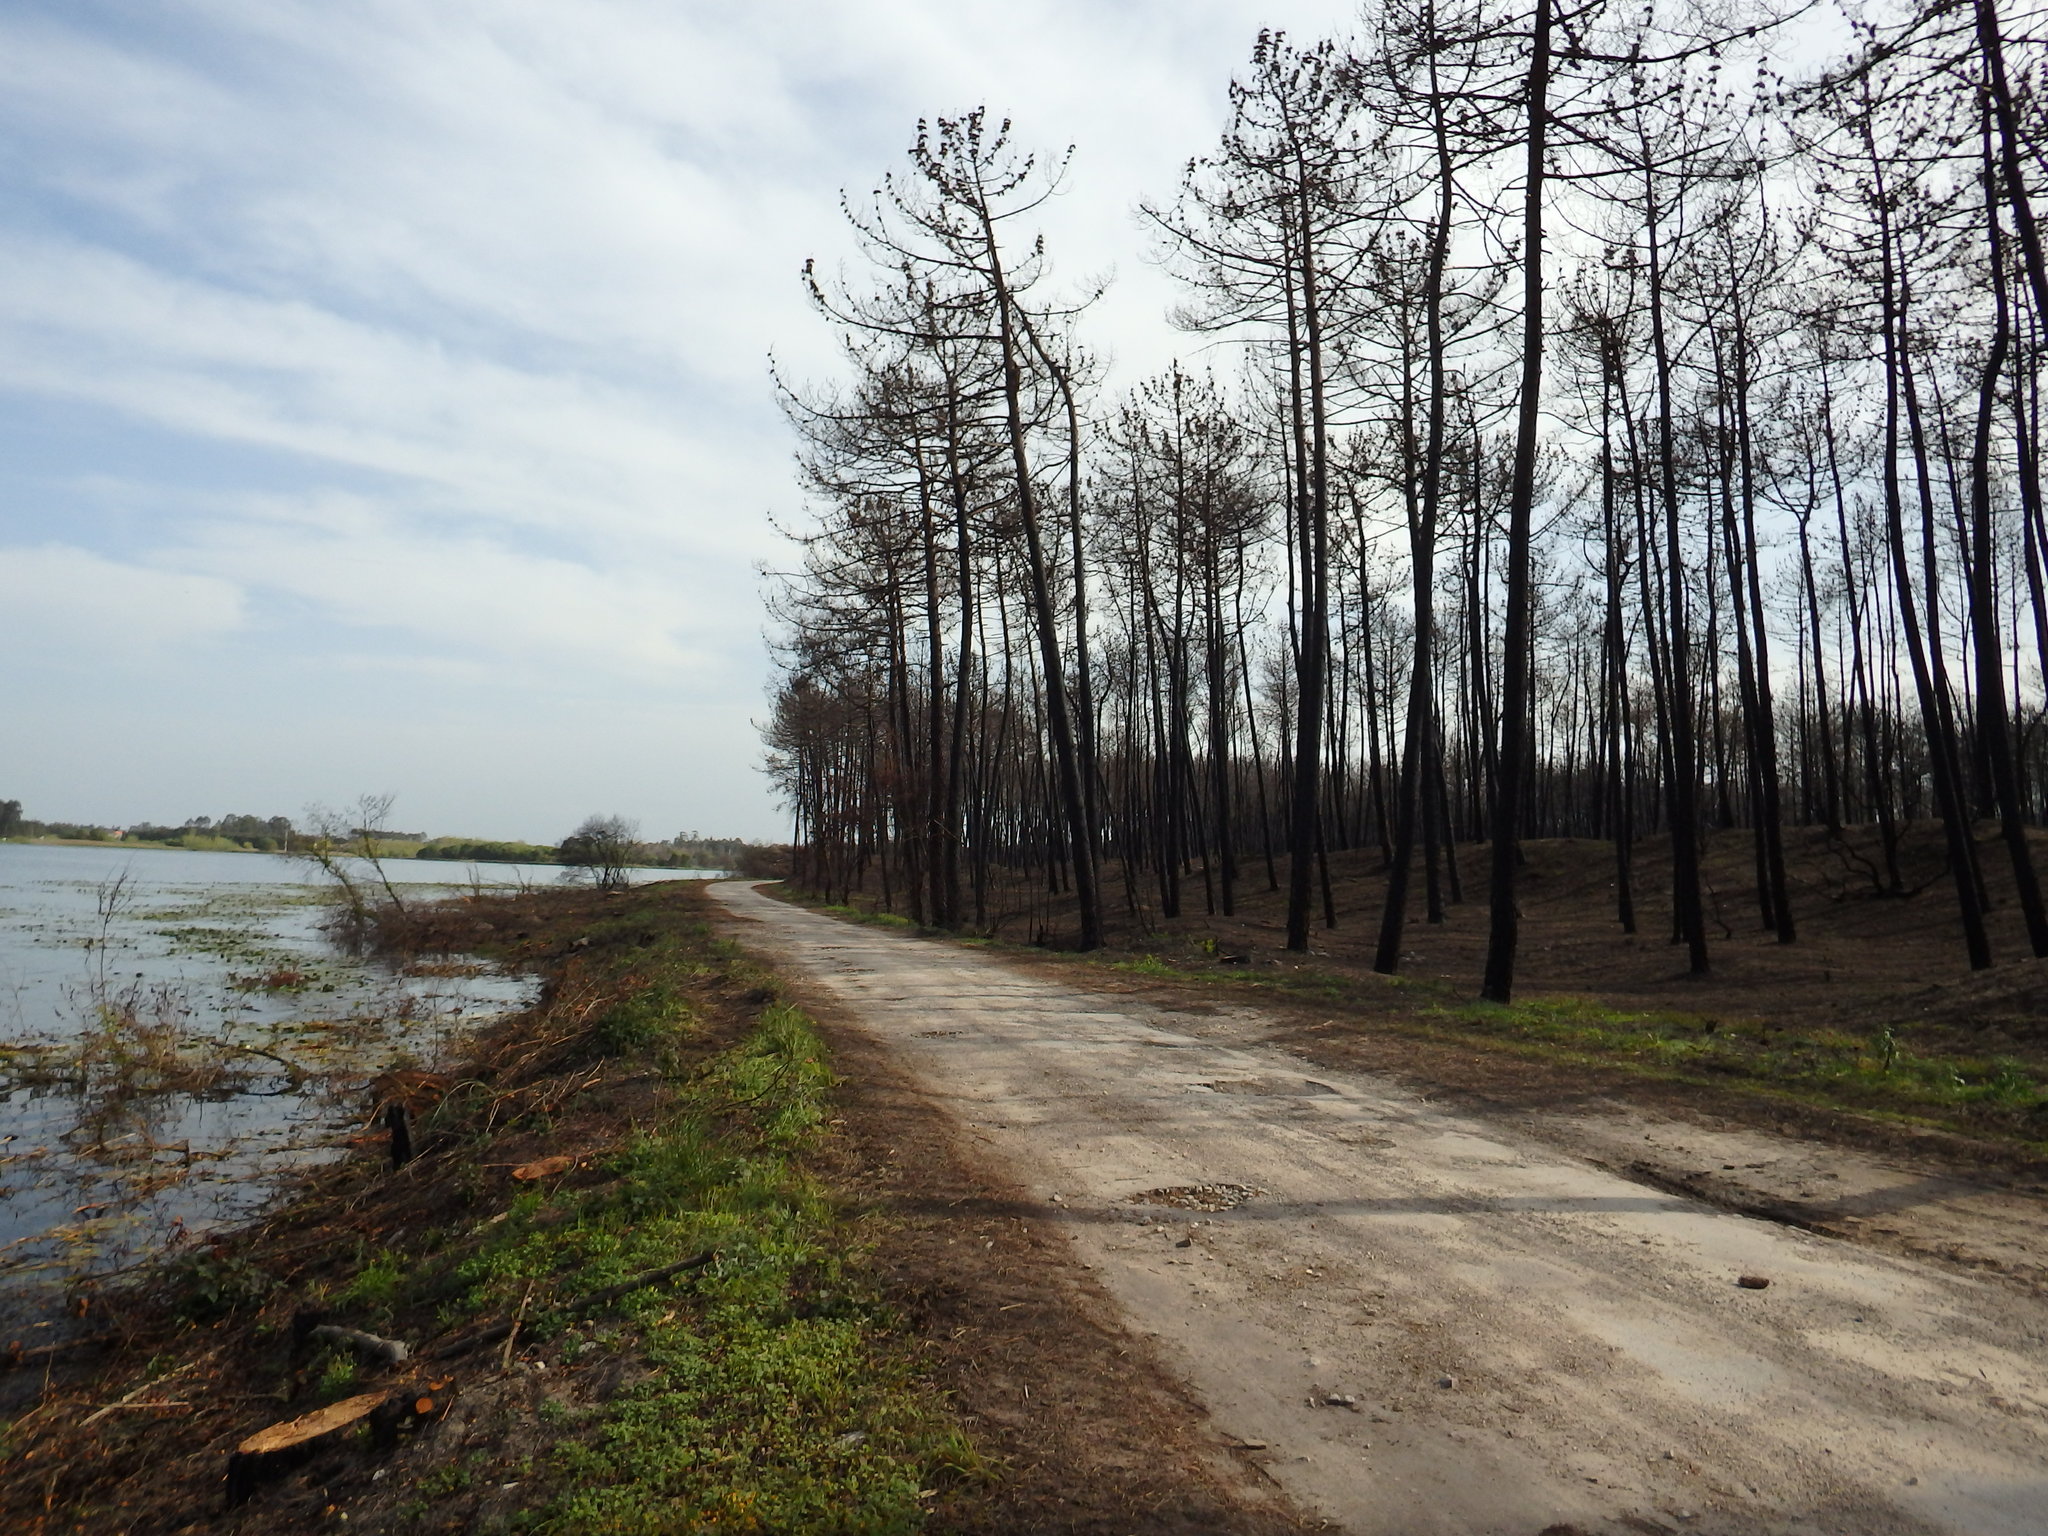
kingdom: Plantae
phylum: Tracheophyta
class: Pinopsida
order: Pinales
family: Pinaceae
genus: Pinus
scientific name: Pinus pinaster
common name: Maritime pine
